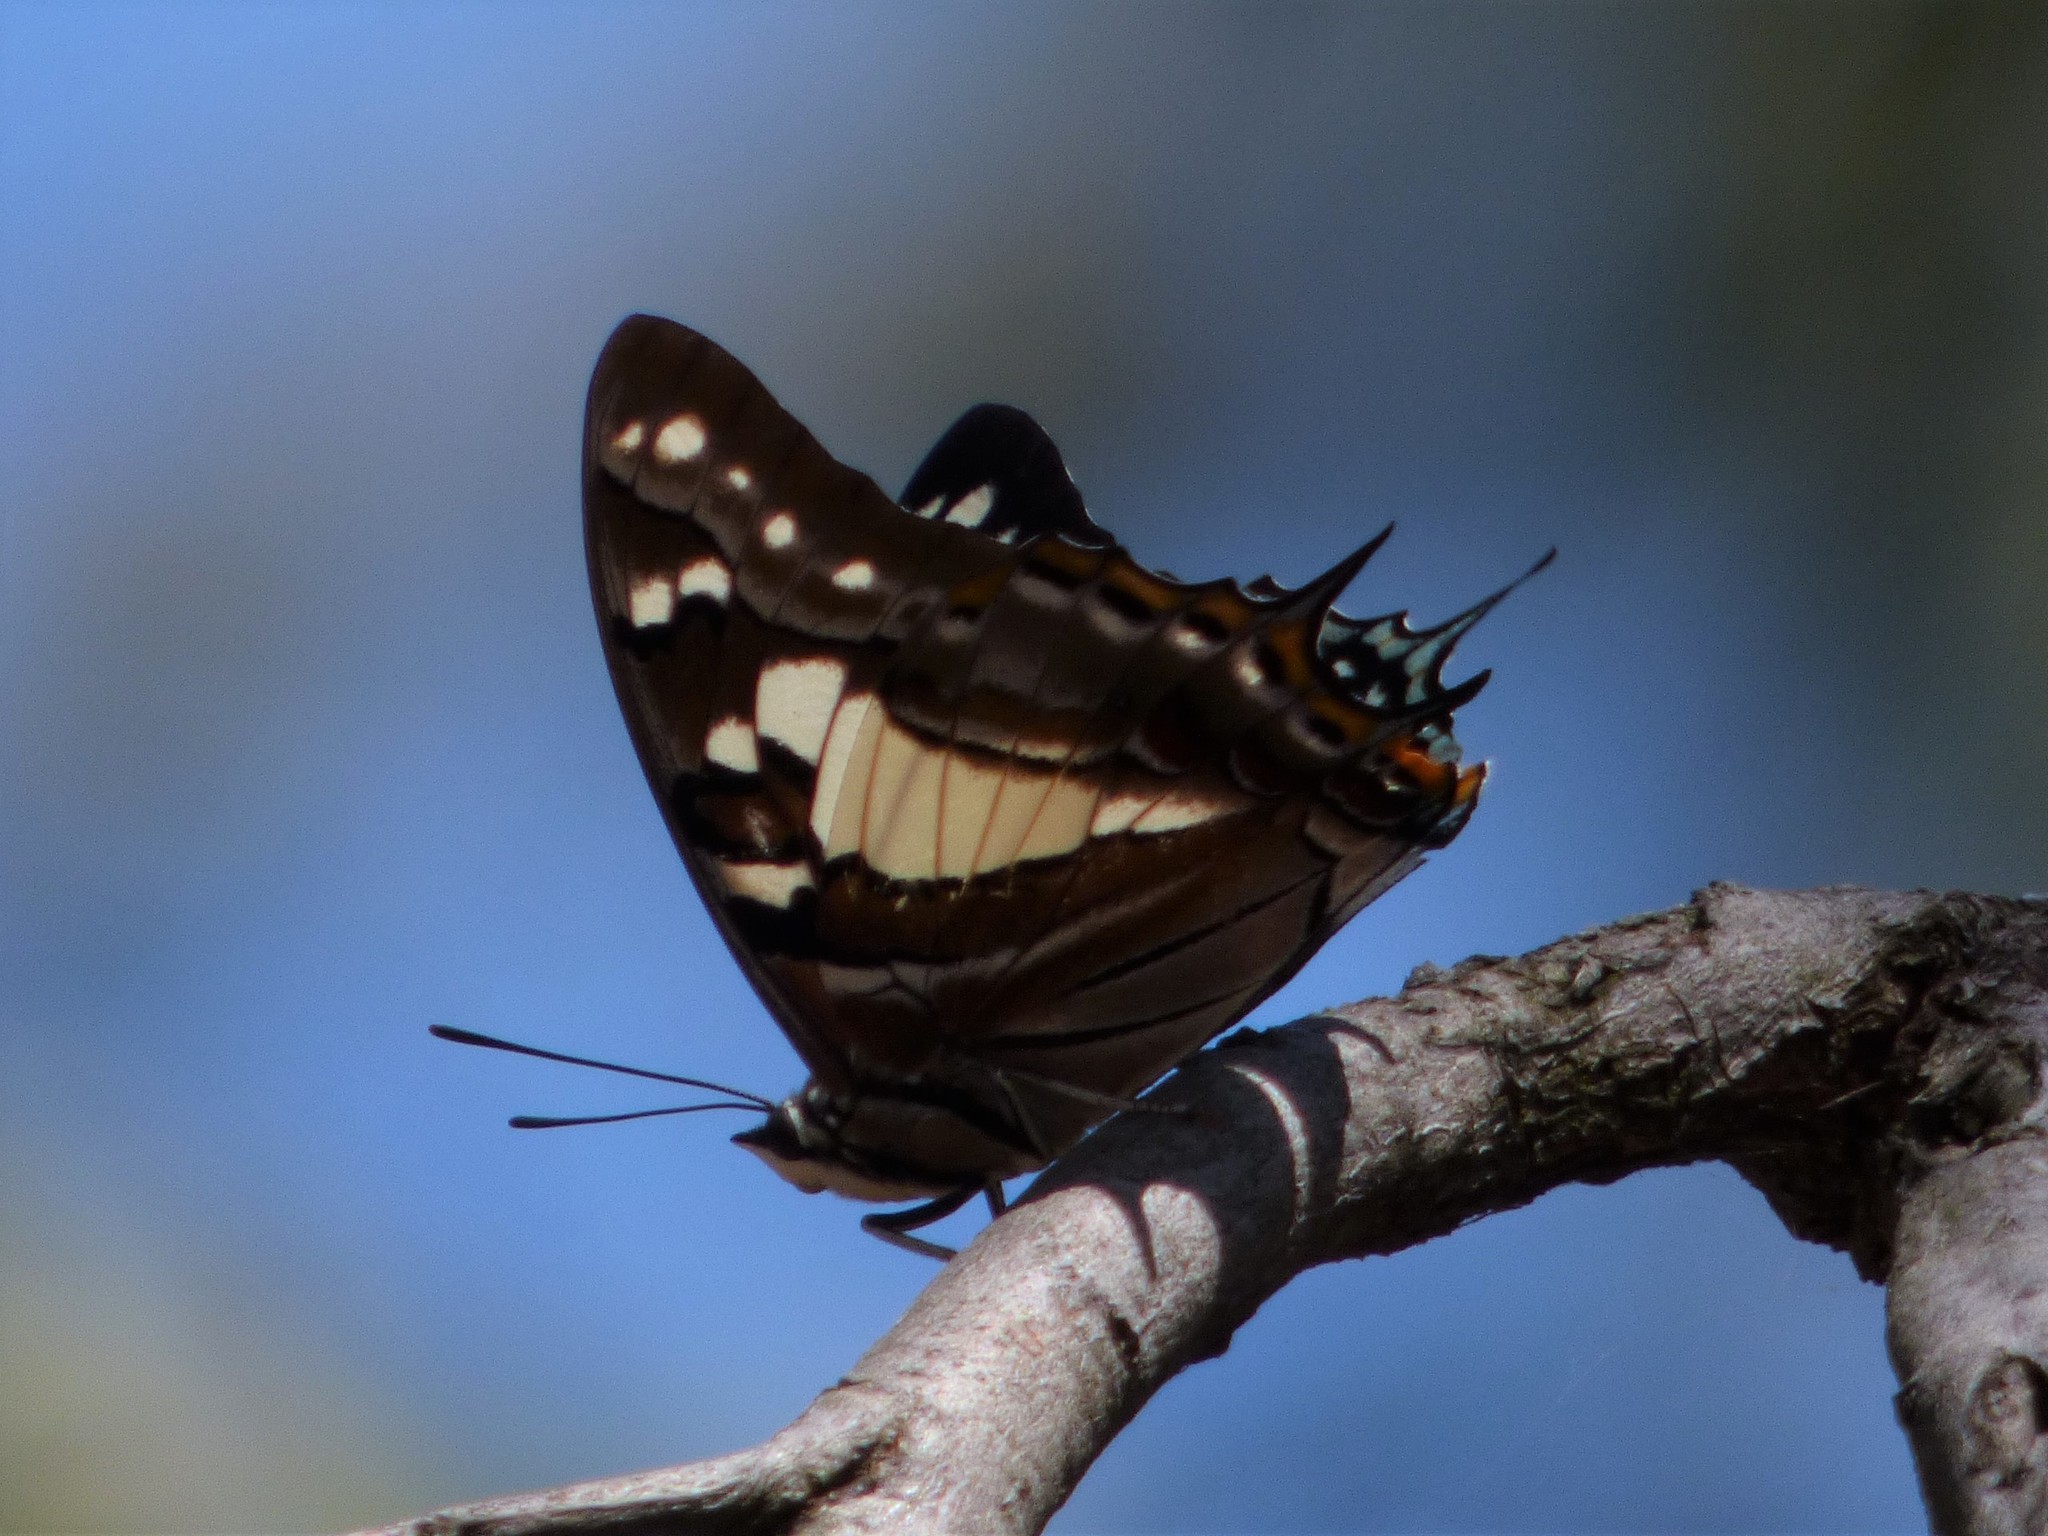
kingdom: Animalia
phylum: Arthropoda
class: Insecta
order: Lepidoptera
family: Nymphalidae
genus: Charaxes
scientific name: Charaxes
